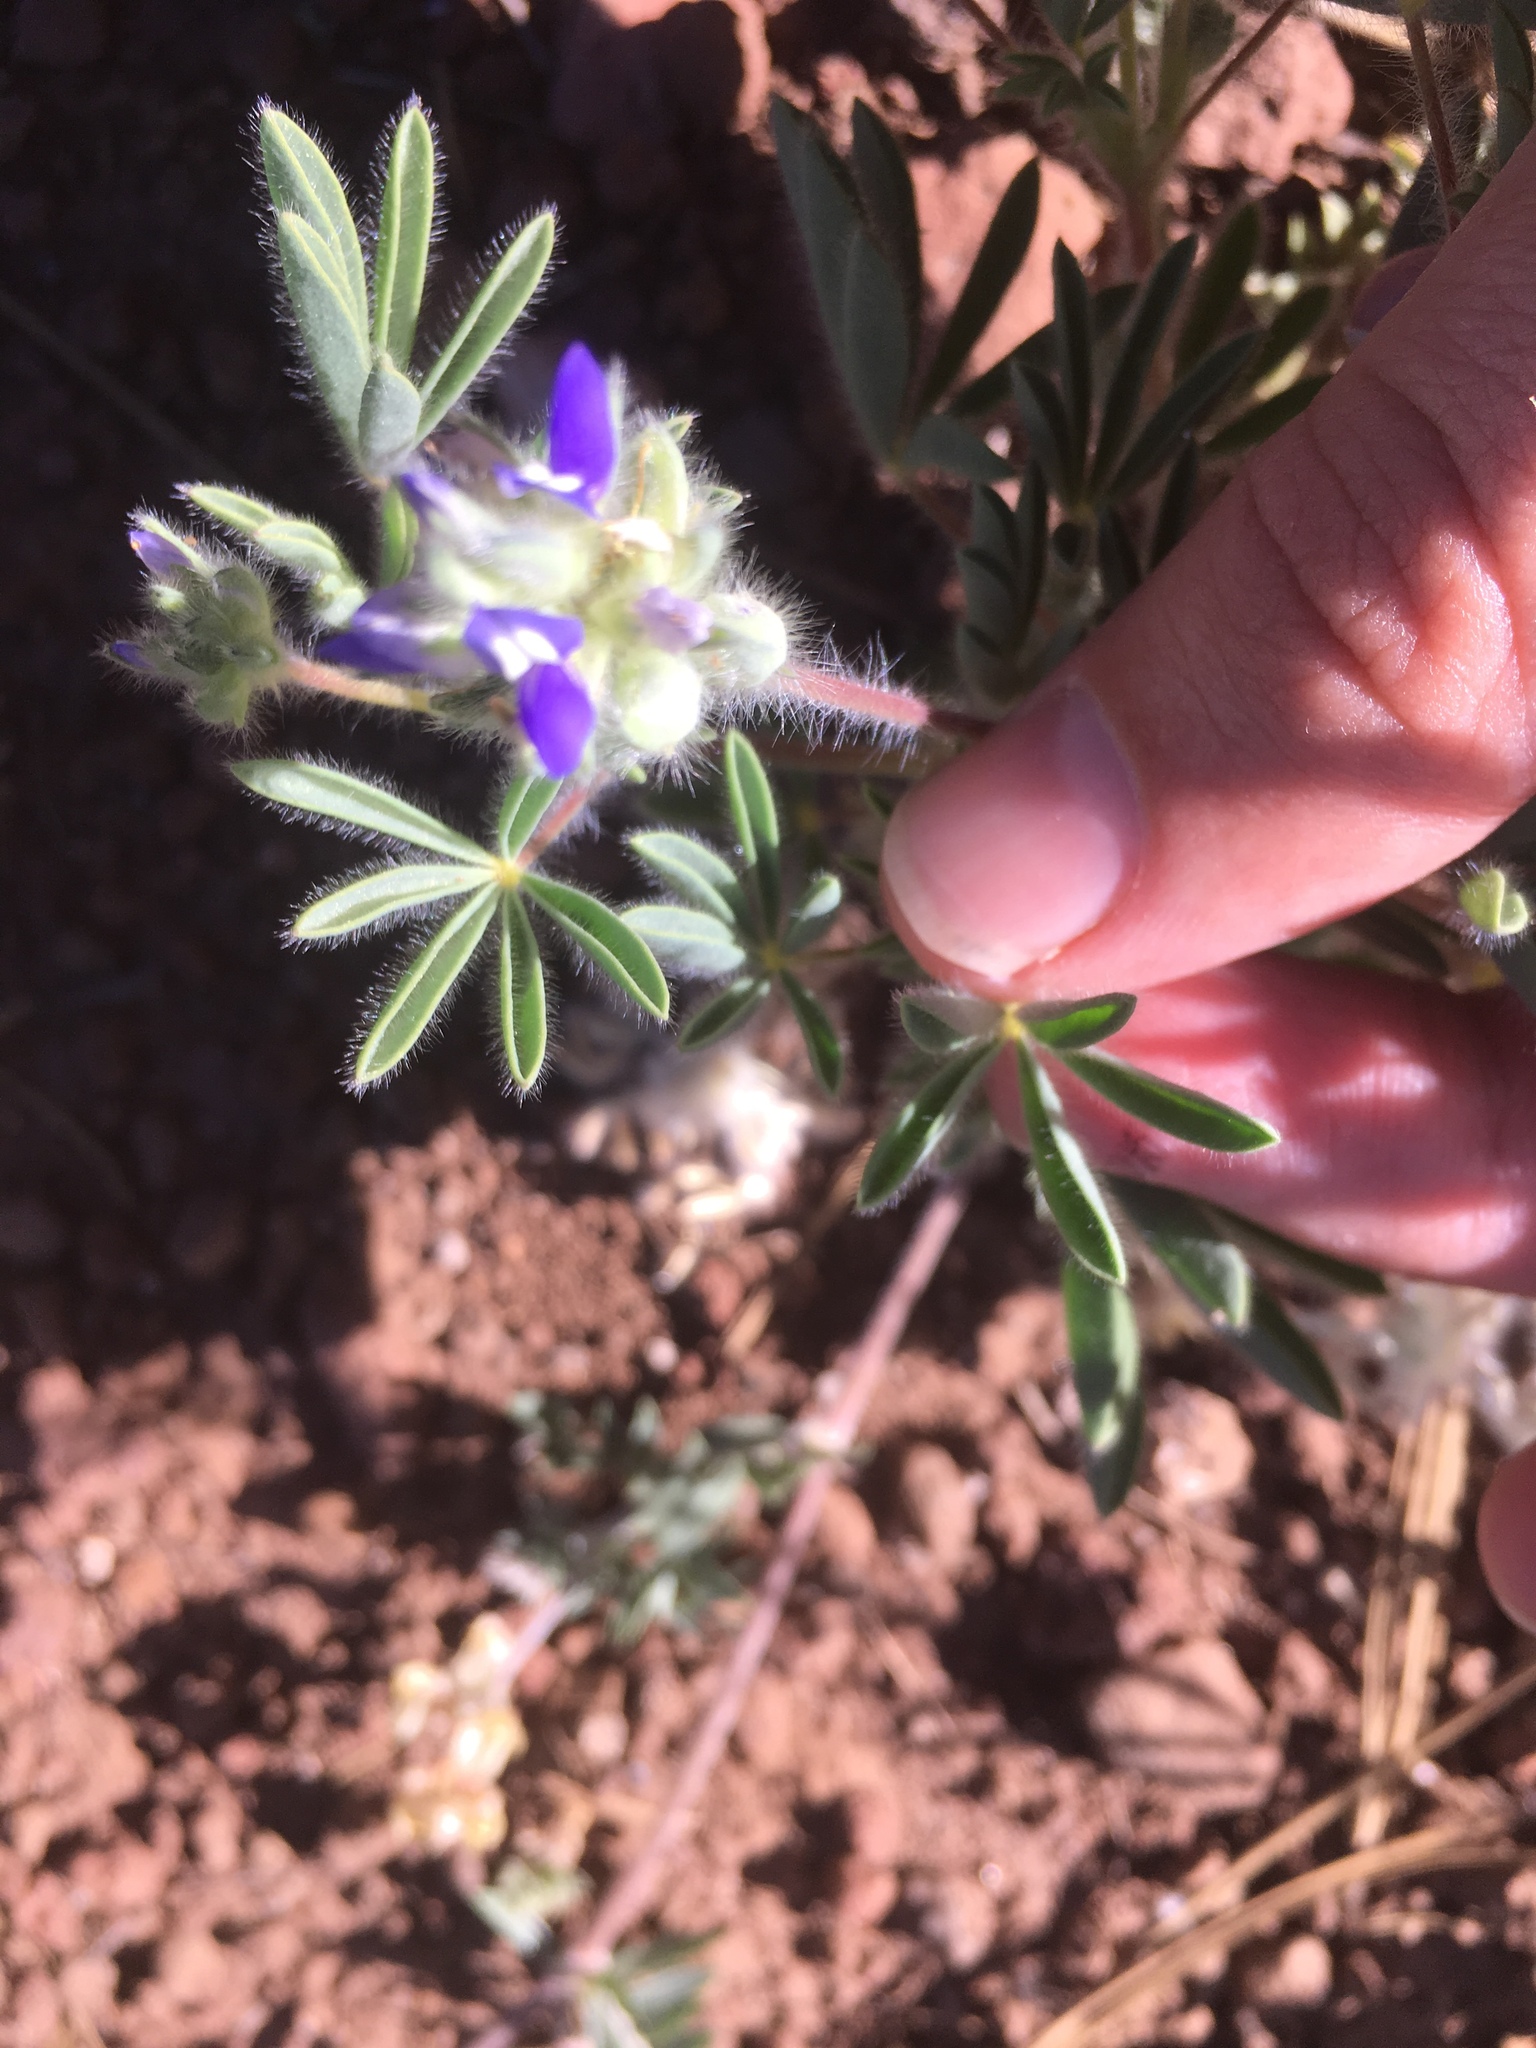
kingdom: Plantae
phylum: Tracheophyta
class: Magnoliopsida
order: Fabales
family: Fabaceae
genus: Lupinus
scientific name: Lupinus kingii
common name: King's lupine
